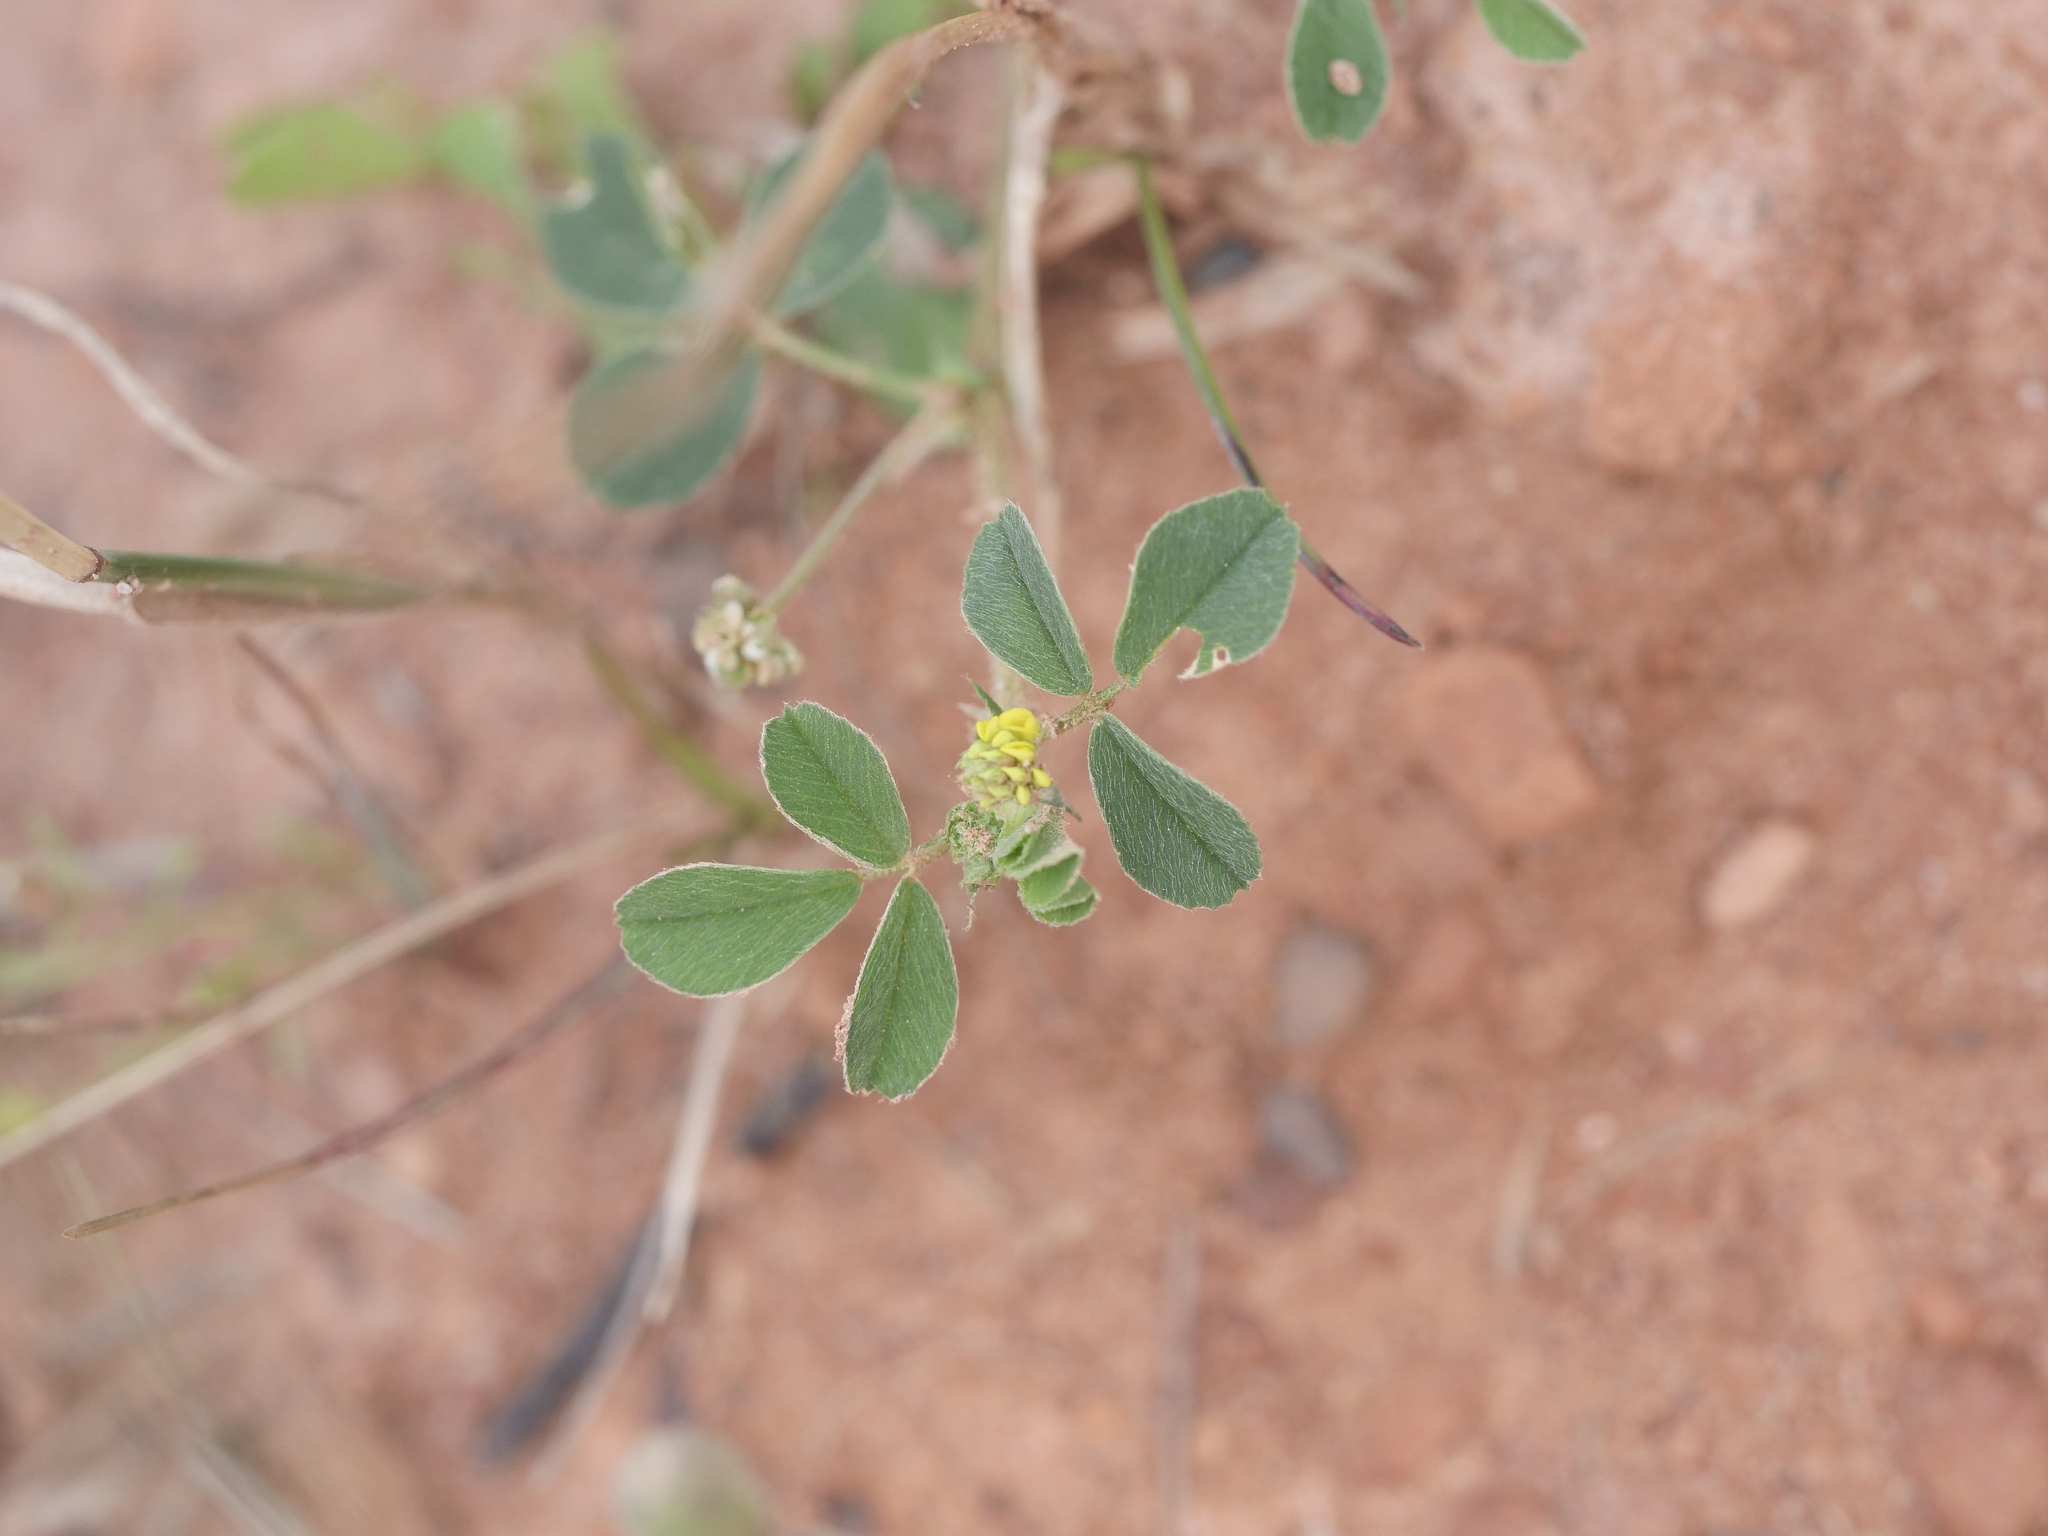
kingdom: Plantae
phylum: Tracheophyta
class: Magnoliopsida
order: Fabales
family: Fabaceae
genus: Medicago
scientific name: Medicago lupulina
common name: Black medick
